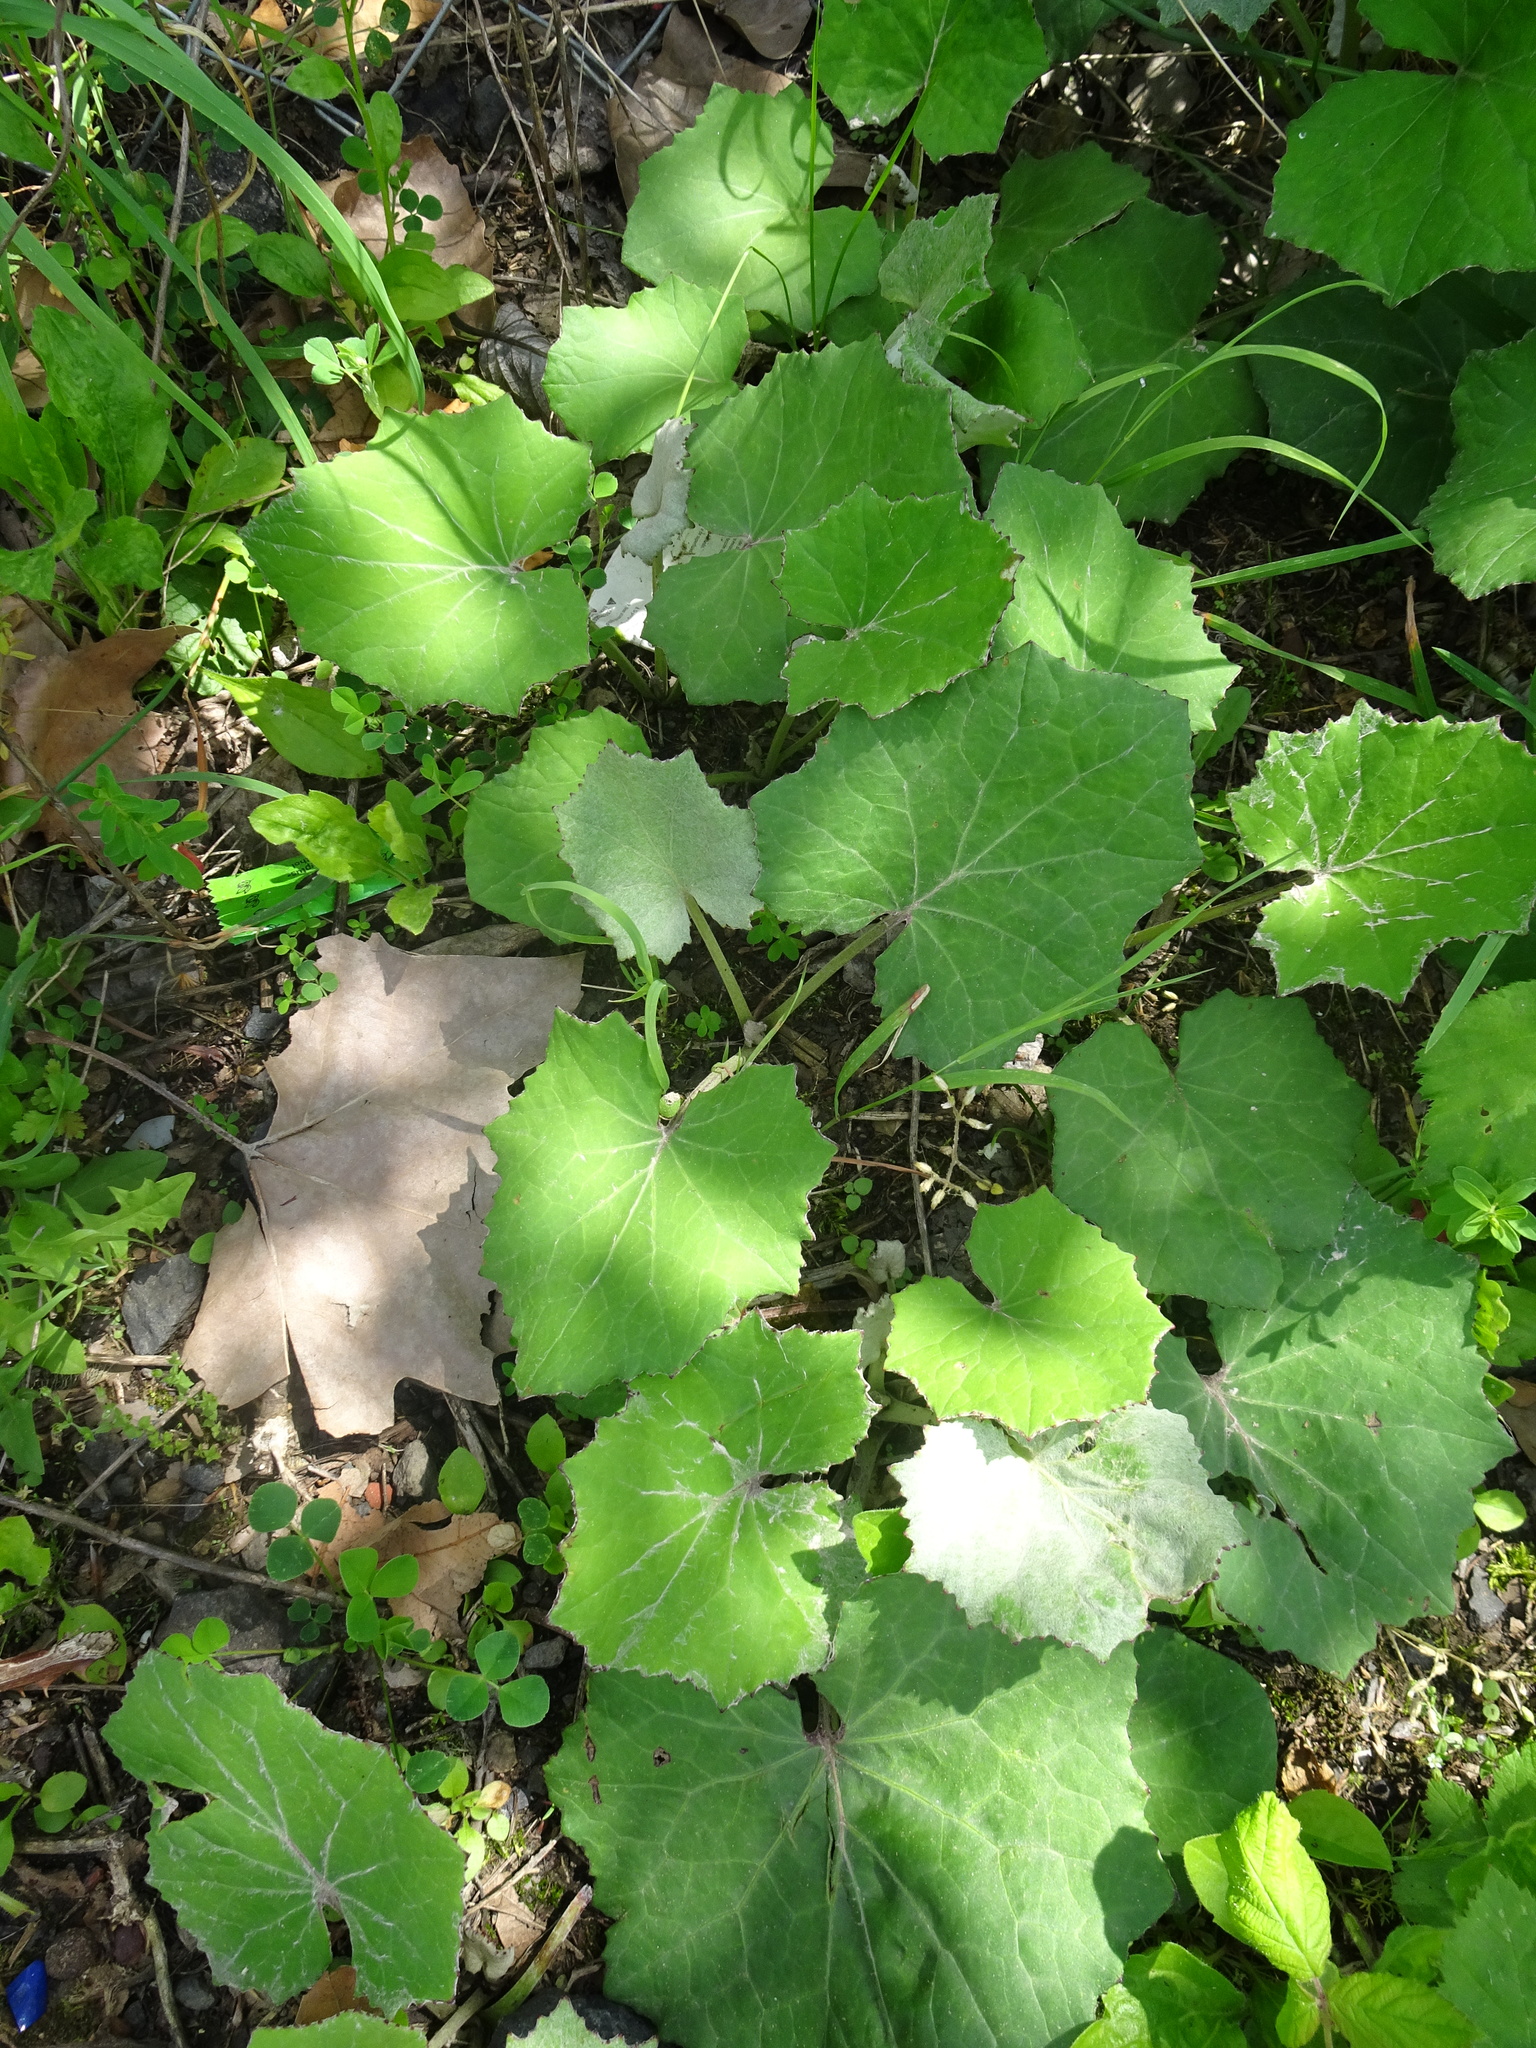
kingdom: Plantae
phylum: Tracheophyta
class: Magnoliopsida
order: Asterales
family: Asteraceae
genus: Tussilago
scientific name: Tussilago farfara
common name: Coltsfoot
